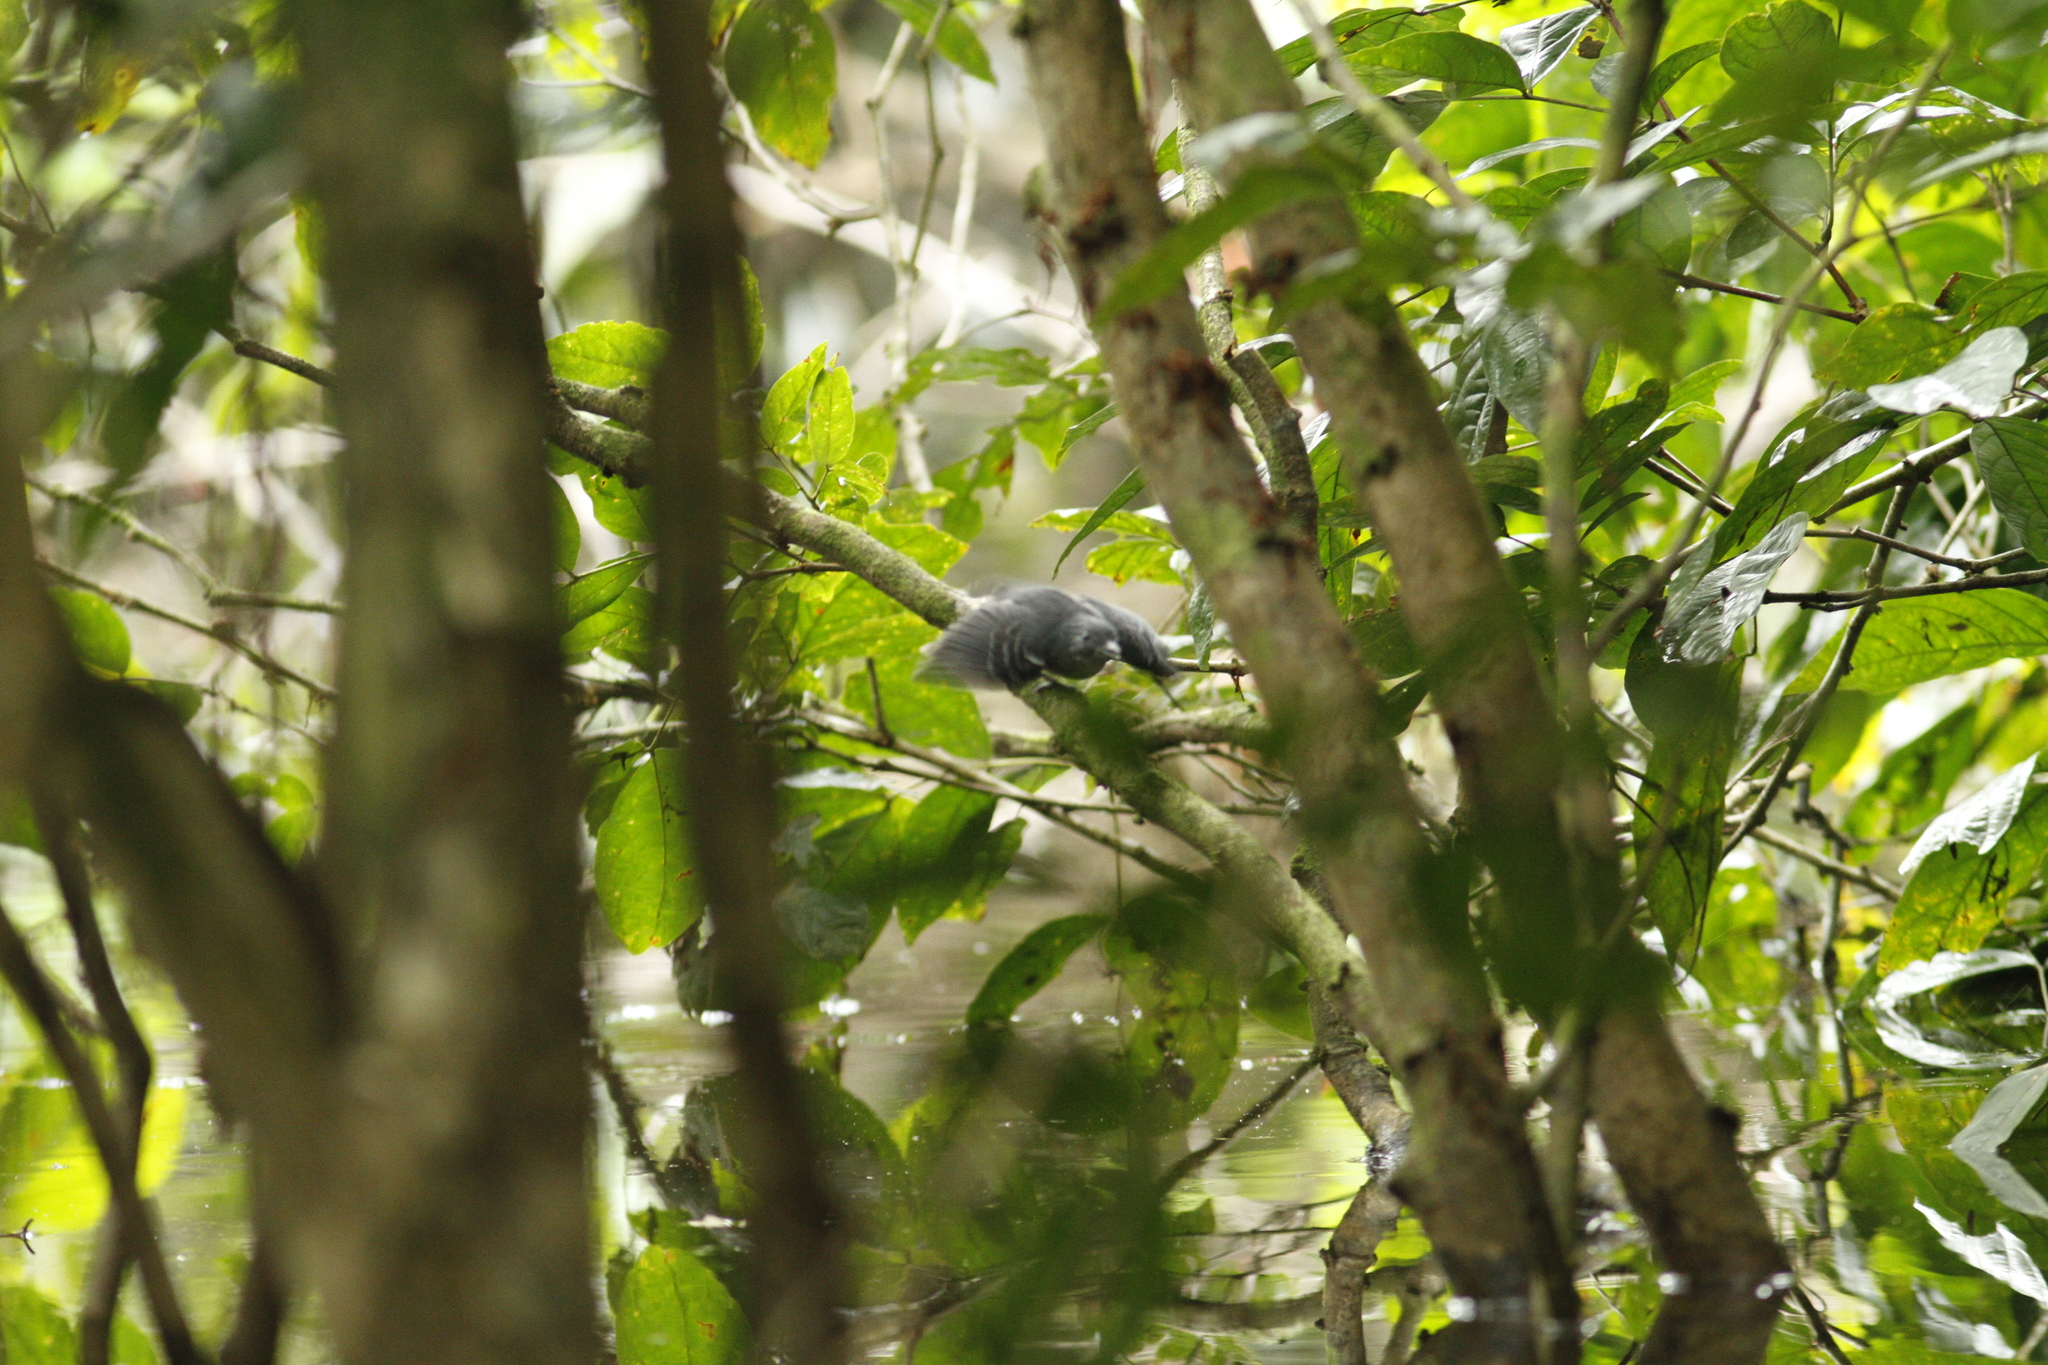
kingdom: Animalia
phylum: Chordata
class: Aves
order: Passeriformes
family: Thamnophilidae
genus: Myrmotherula
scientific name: Myrmotherula longipennis
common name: Long-winged antwren
